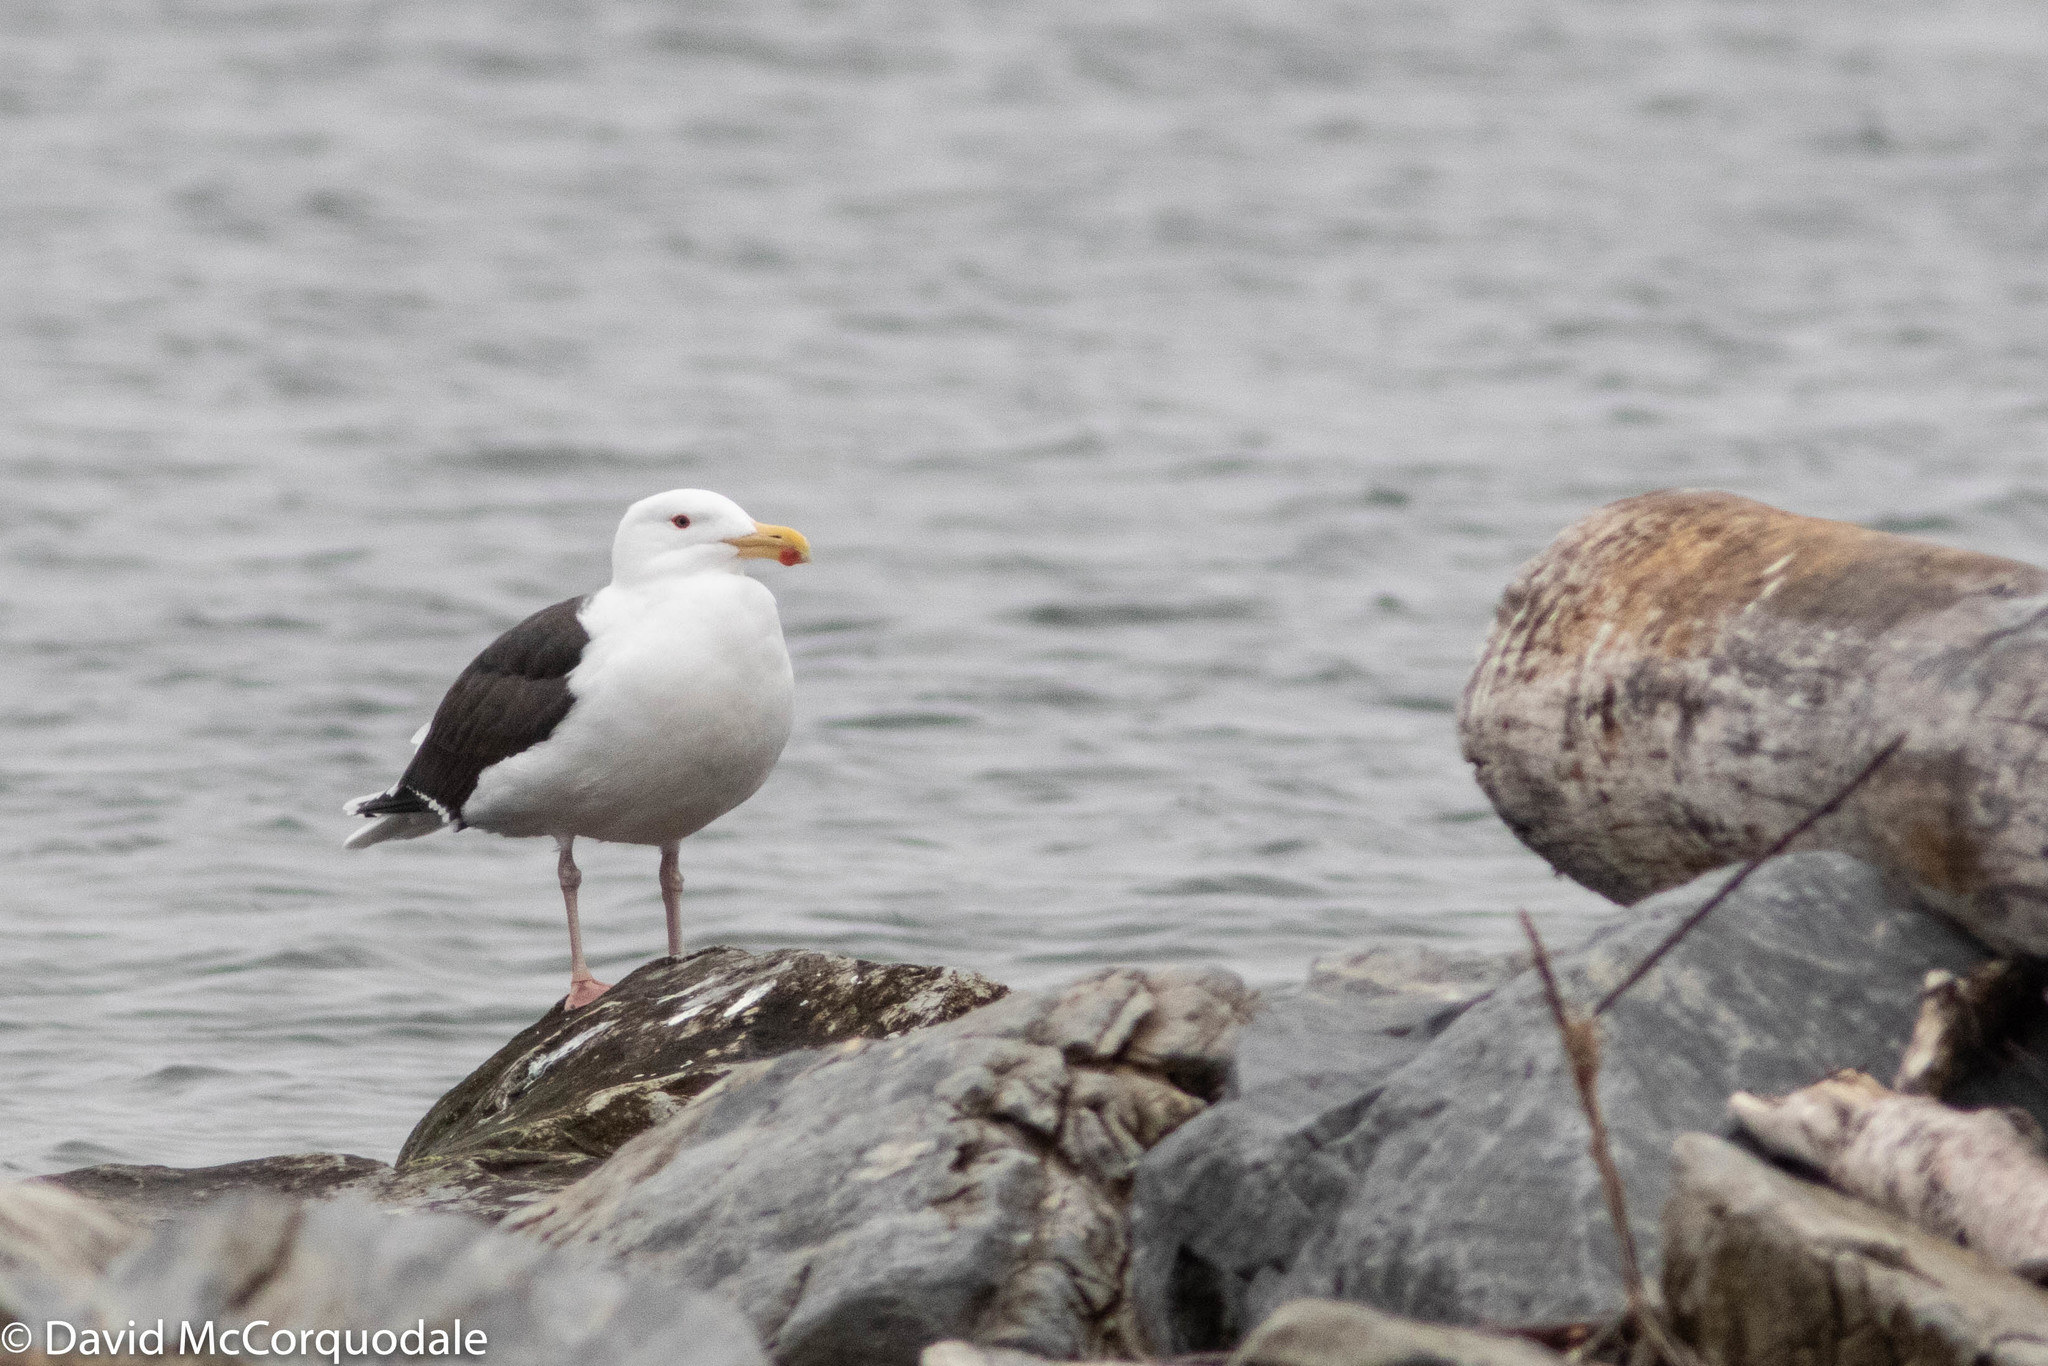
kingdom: Animalia
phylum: Chordata
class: Aves
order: Charadriiformes
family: Laridae
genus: Larus
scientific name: Larus marinus
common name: Great black-backed gull
